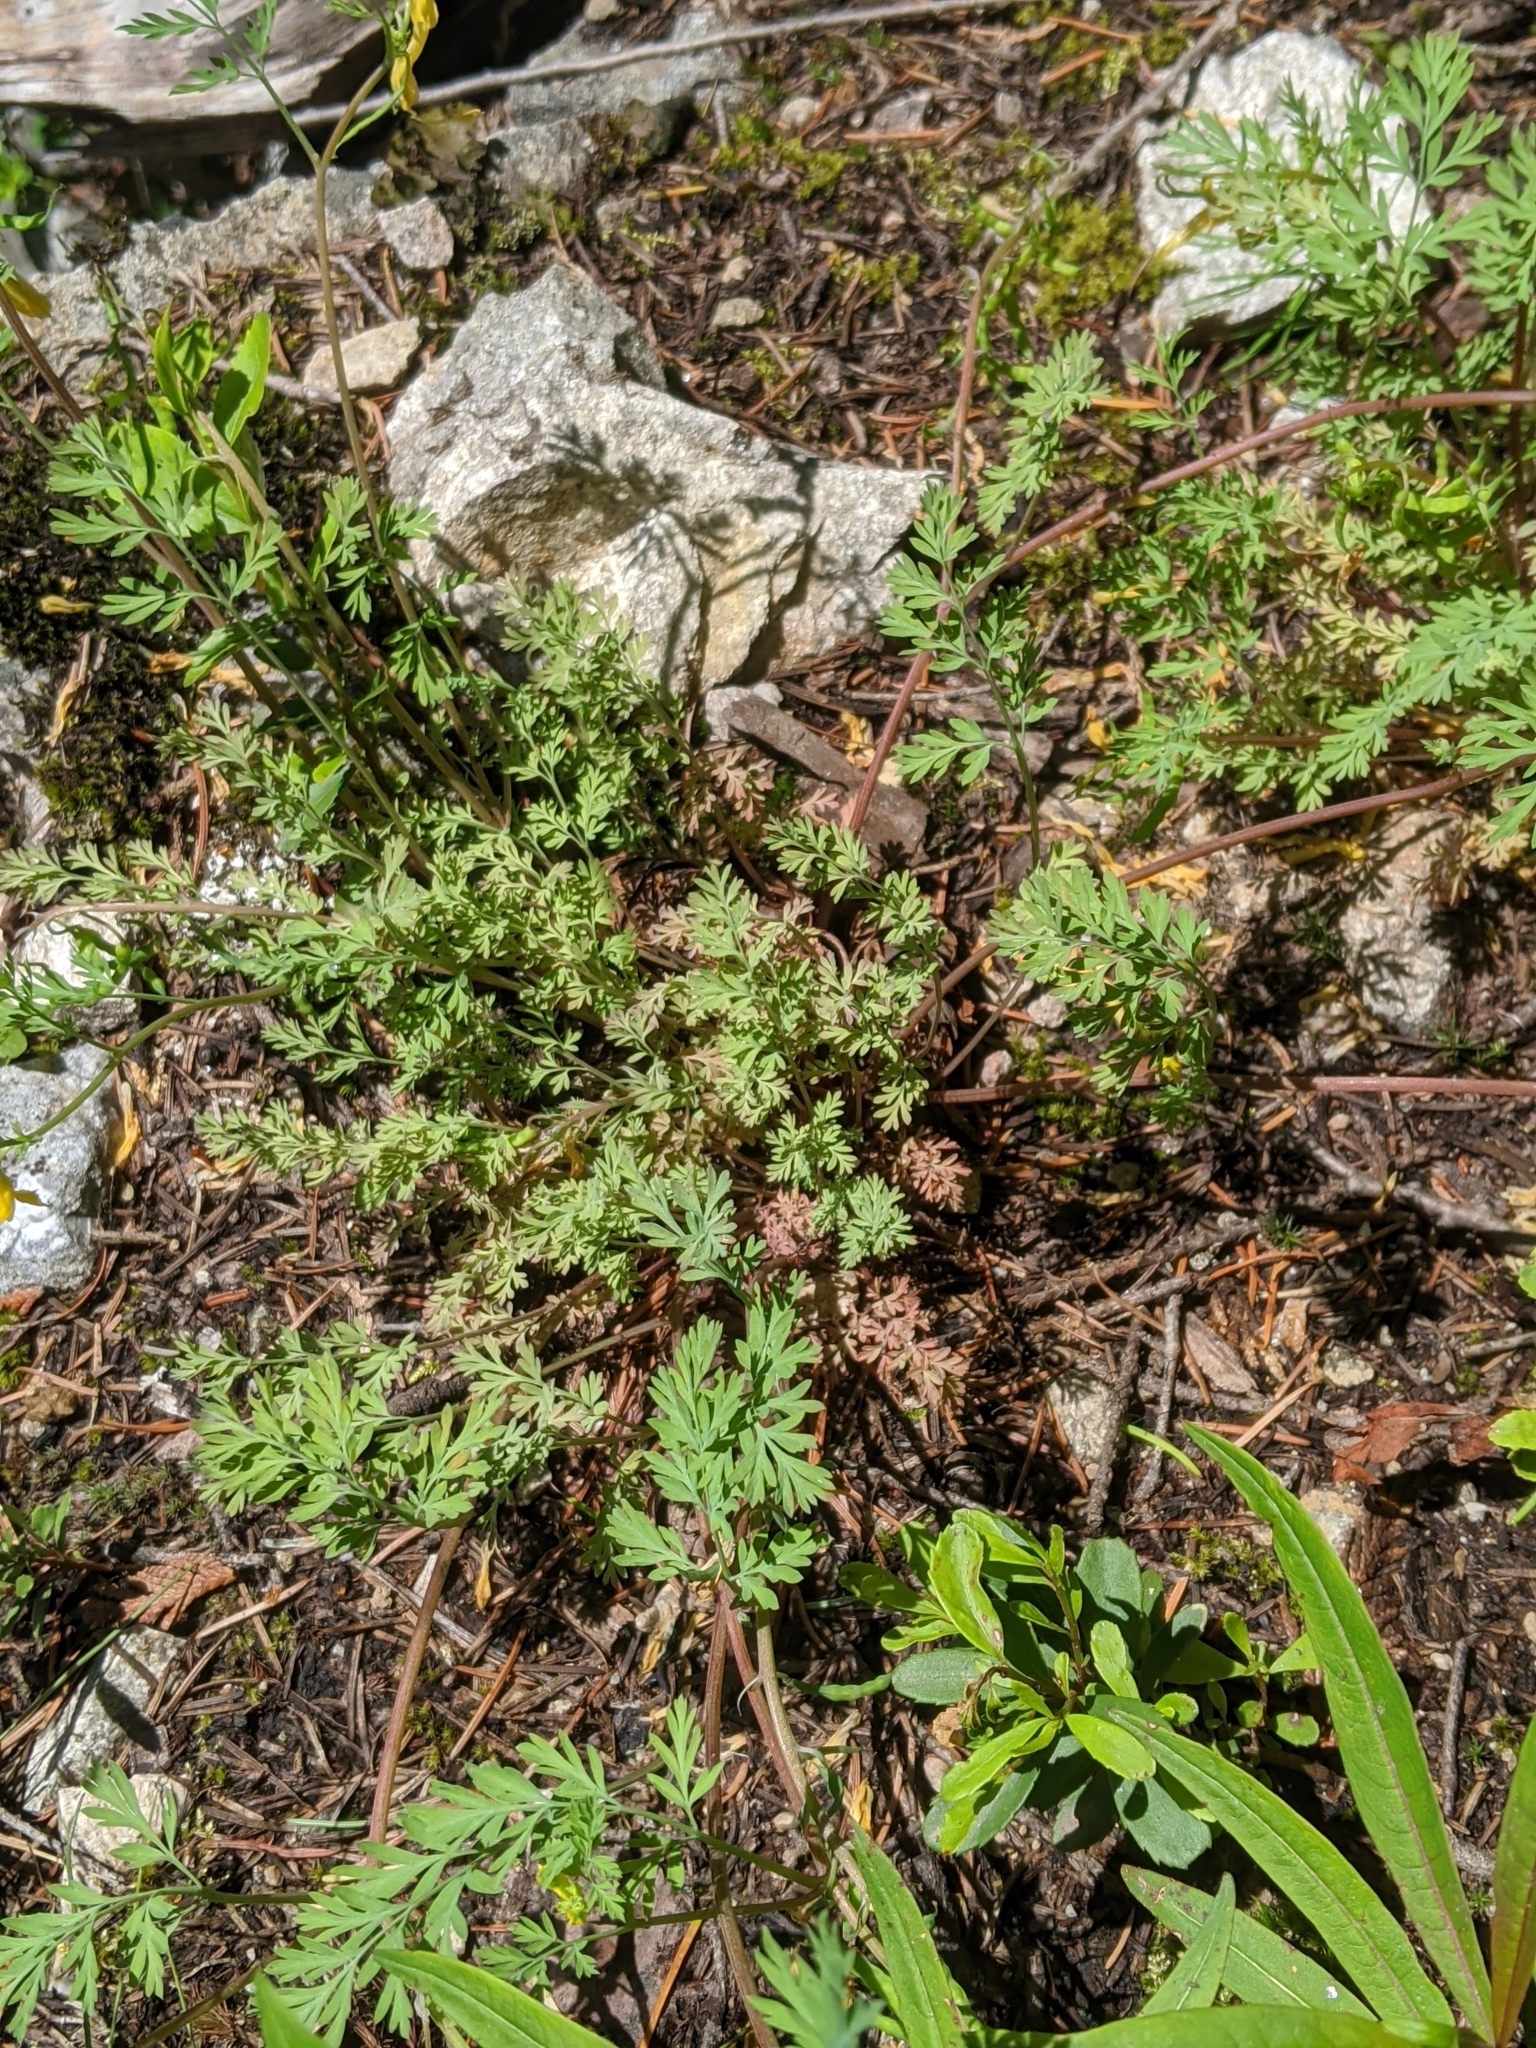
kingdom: Plantae
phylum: Tracheophyta
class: Magnoliopsida
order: Ranunculales
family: Papaveraceae
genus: Corydalis
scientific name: Corydalis aurea
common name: Golden corydalis
